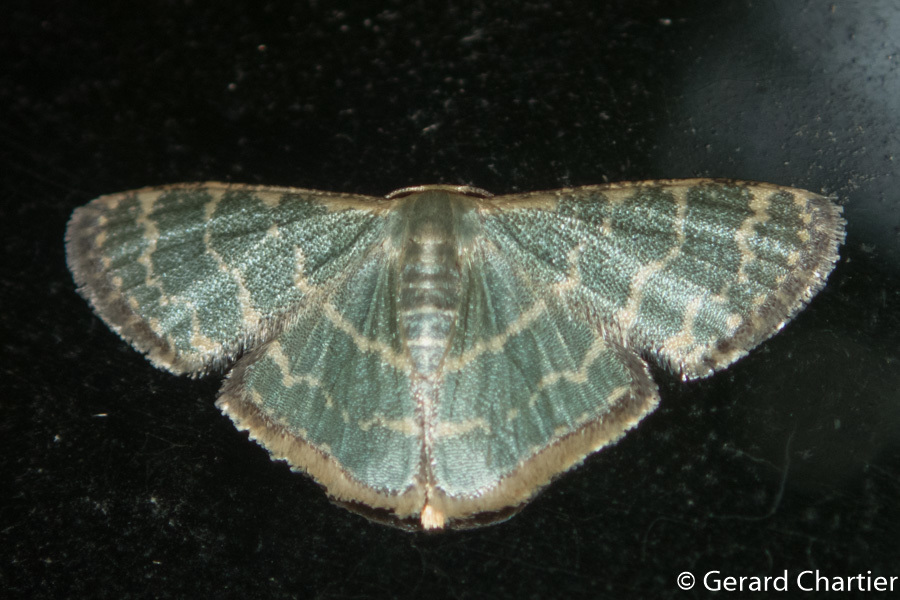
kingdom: Animalia
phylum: Arthropoda
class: Insecta
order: Lepidoptera
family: Geometridae
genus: Lophophleps
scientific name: Lophophleps triangularis
